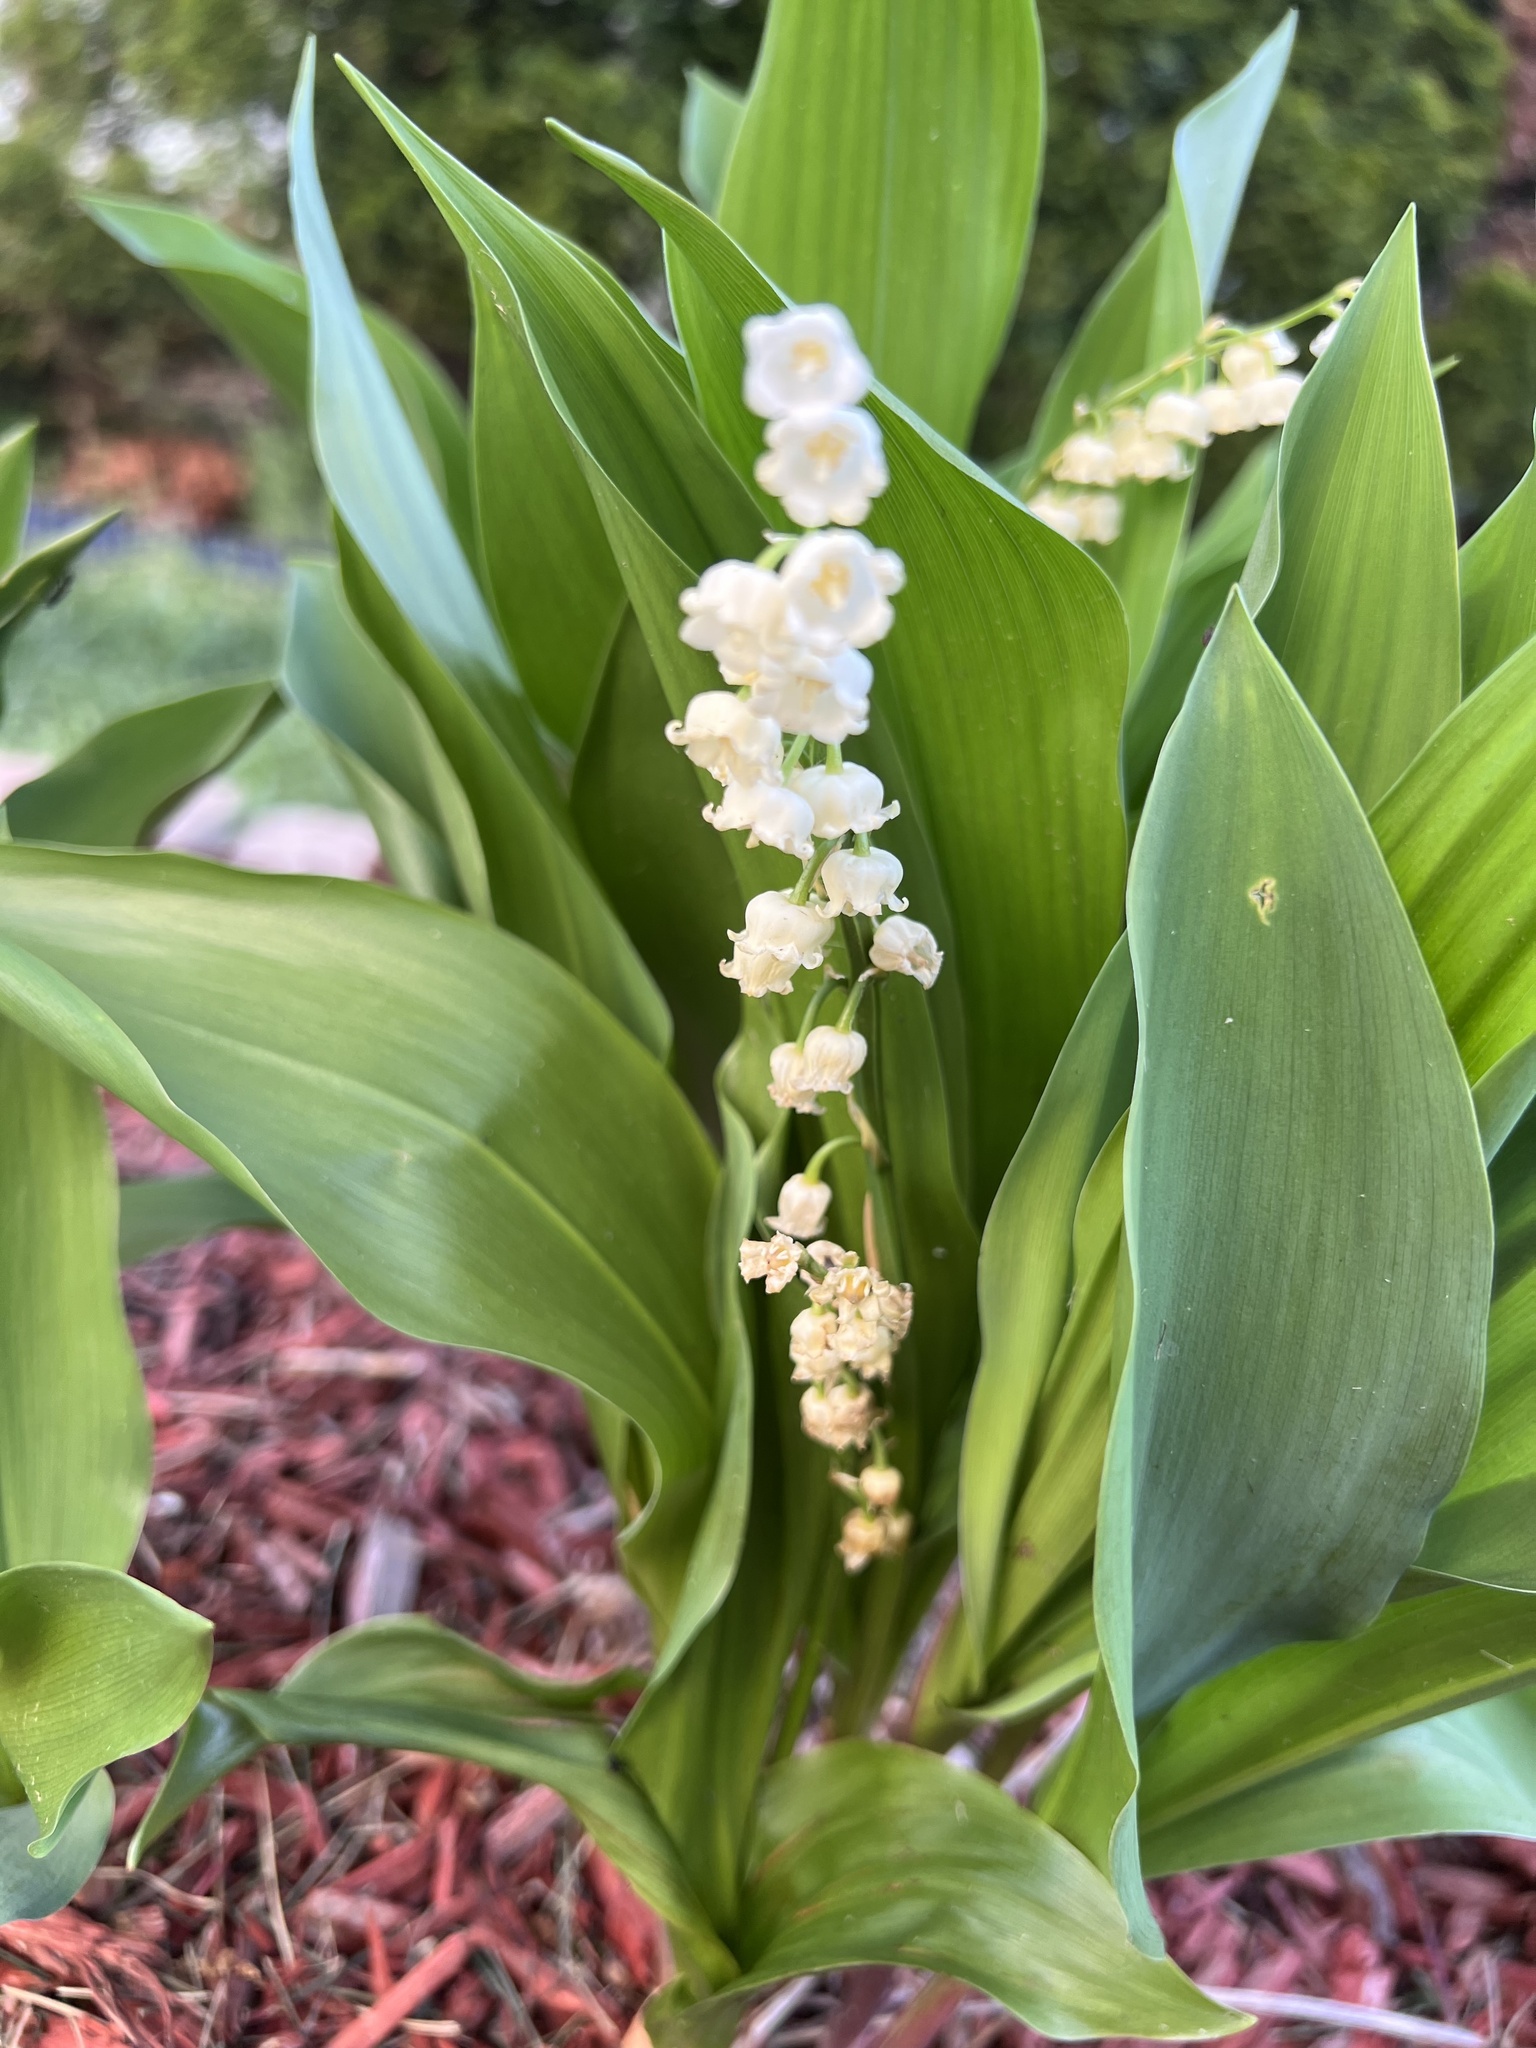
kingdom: Plantae
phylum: Tracheophyta
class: Liliopsida
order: Asparagales
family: Asparagaceae
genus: Convallaria
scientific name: Convallaria majalis
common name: Lily-of-the-valley
